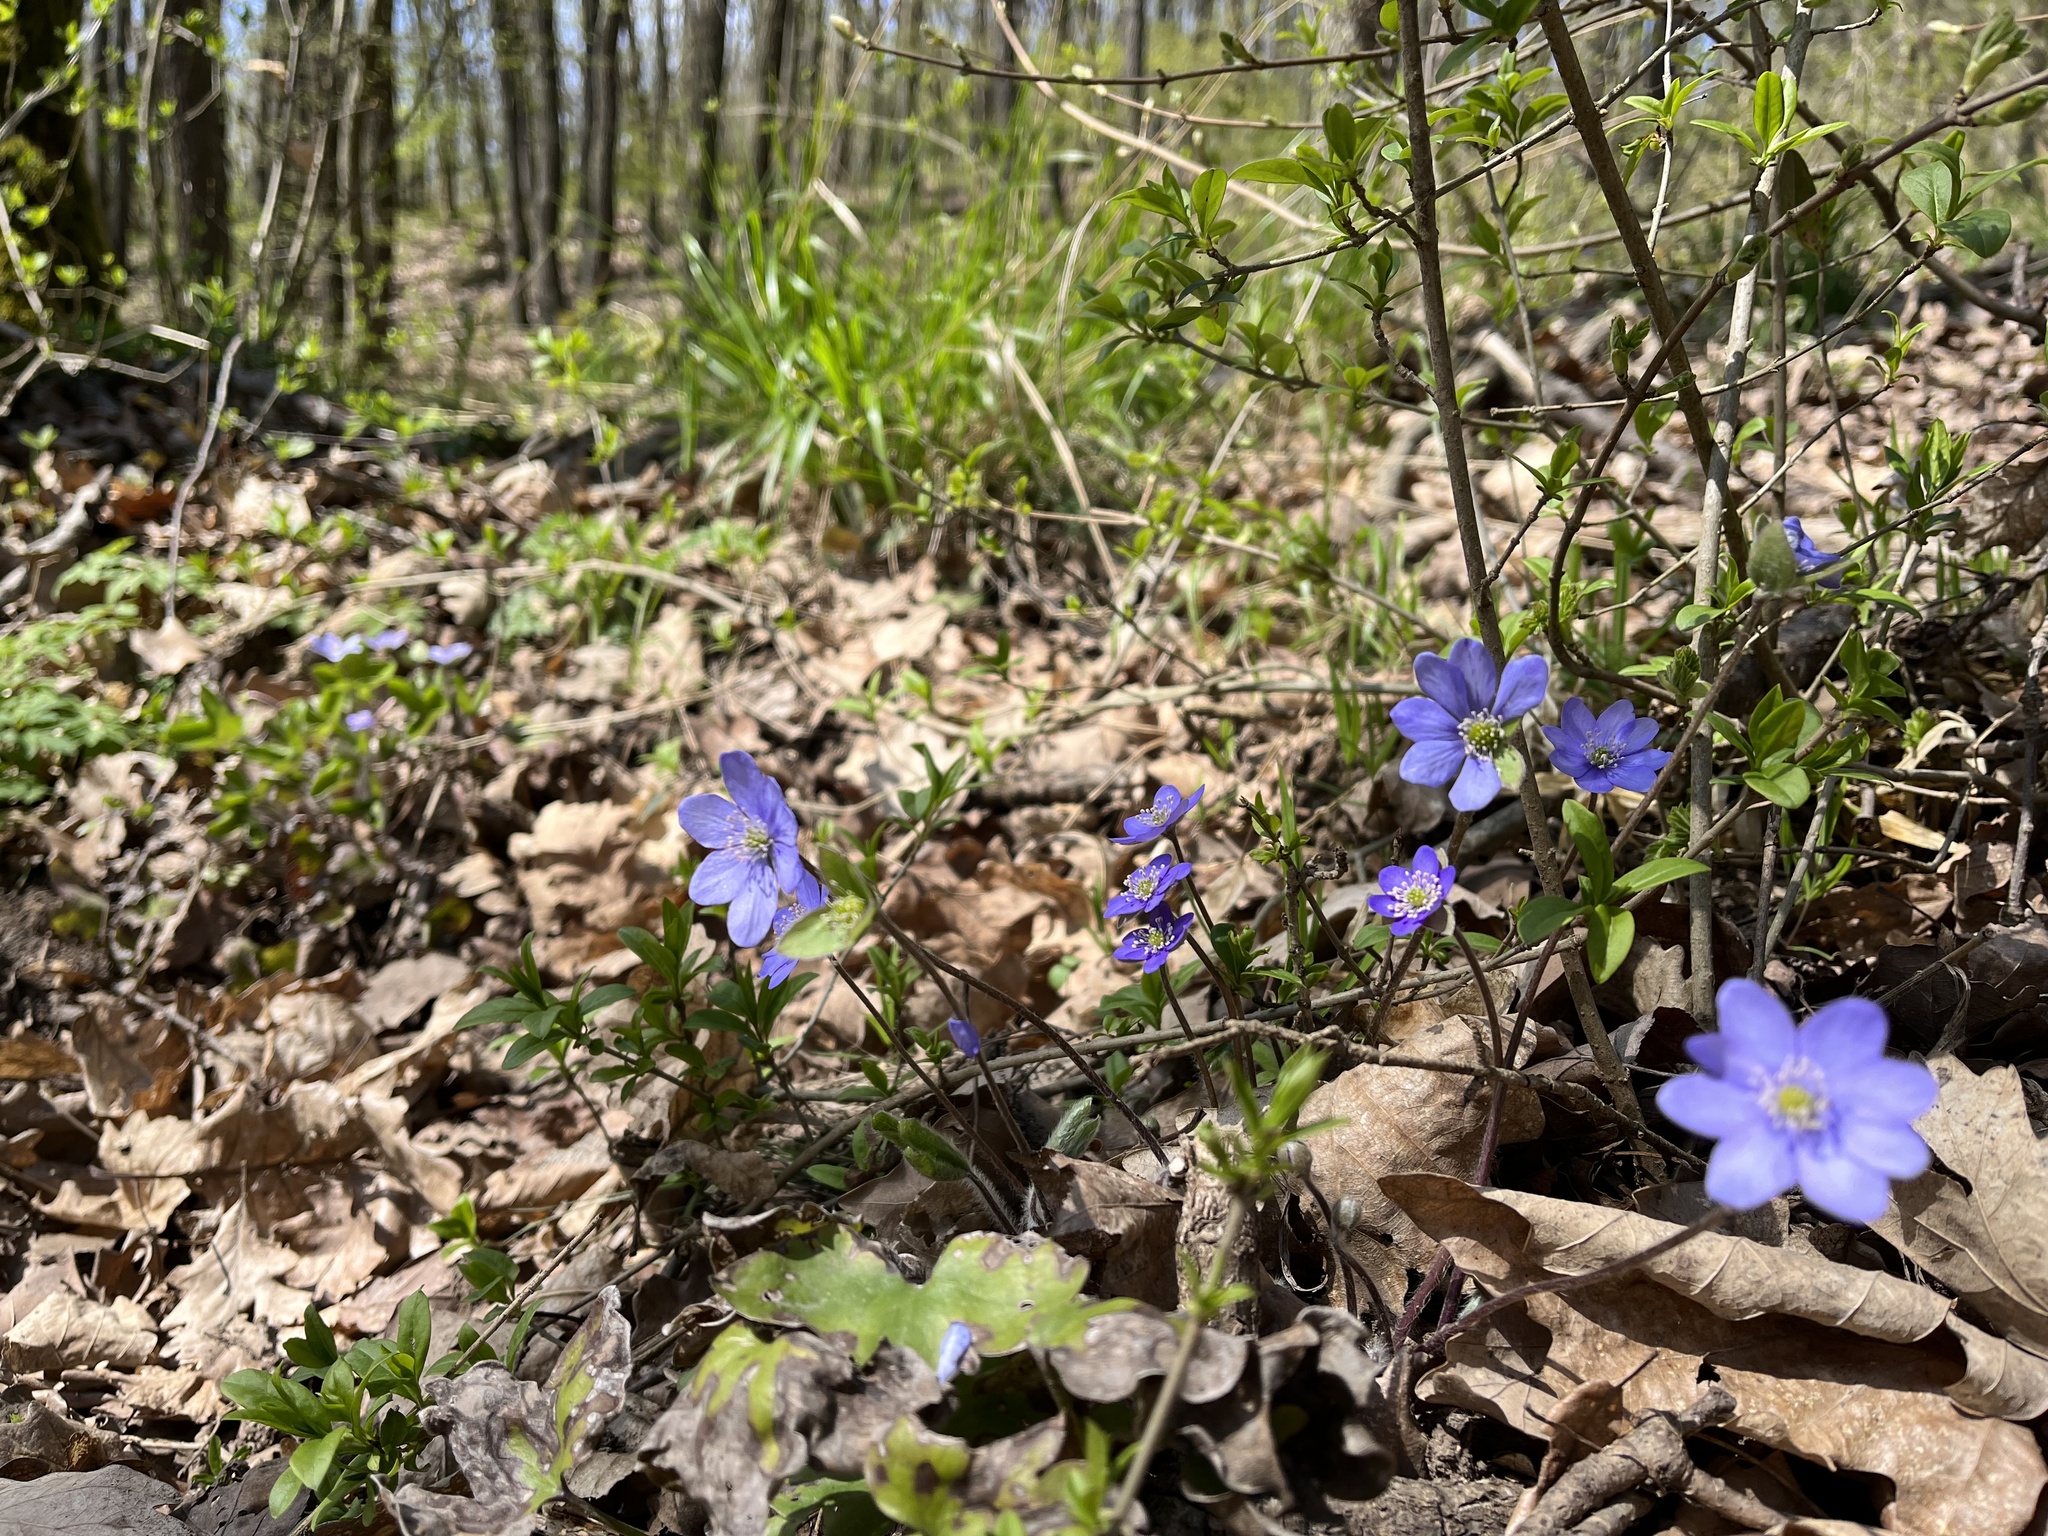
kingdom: Plantae
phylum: Tracheophyta
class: Magnoliopsida
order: Ranunculales
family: Ranunculaceae
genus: Hepatica
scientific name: Hepatica nobilis
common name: Liverleaf
